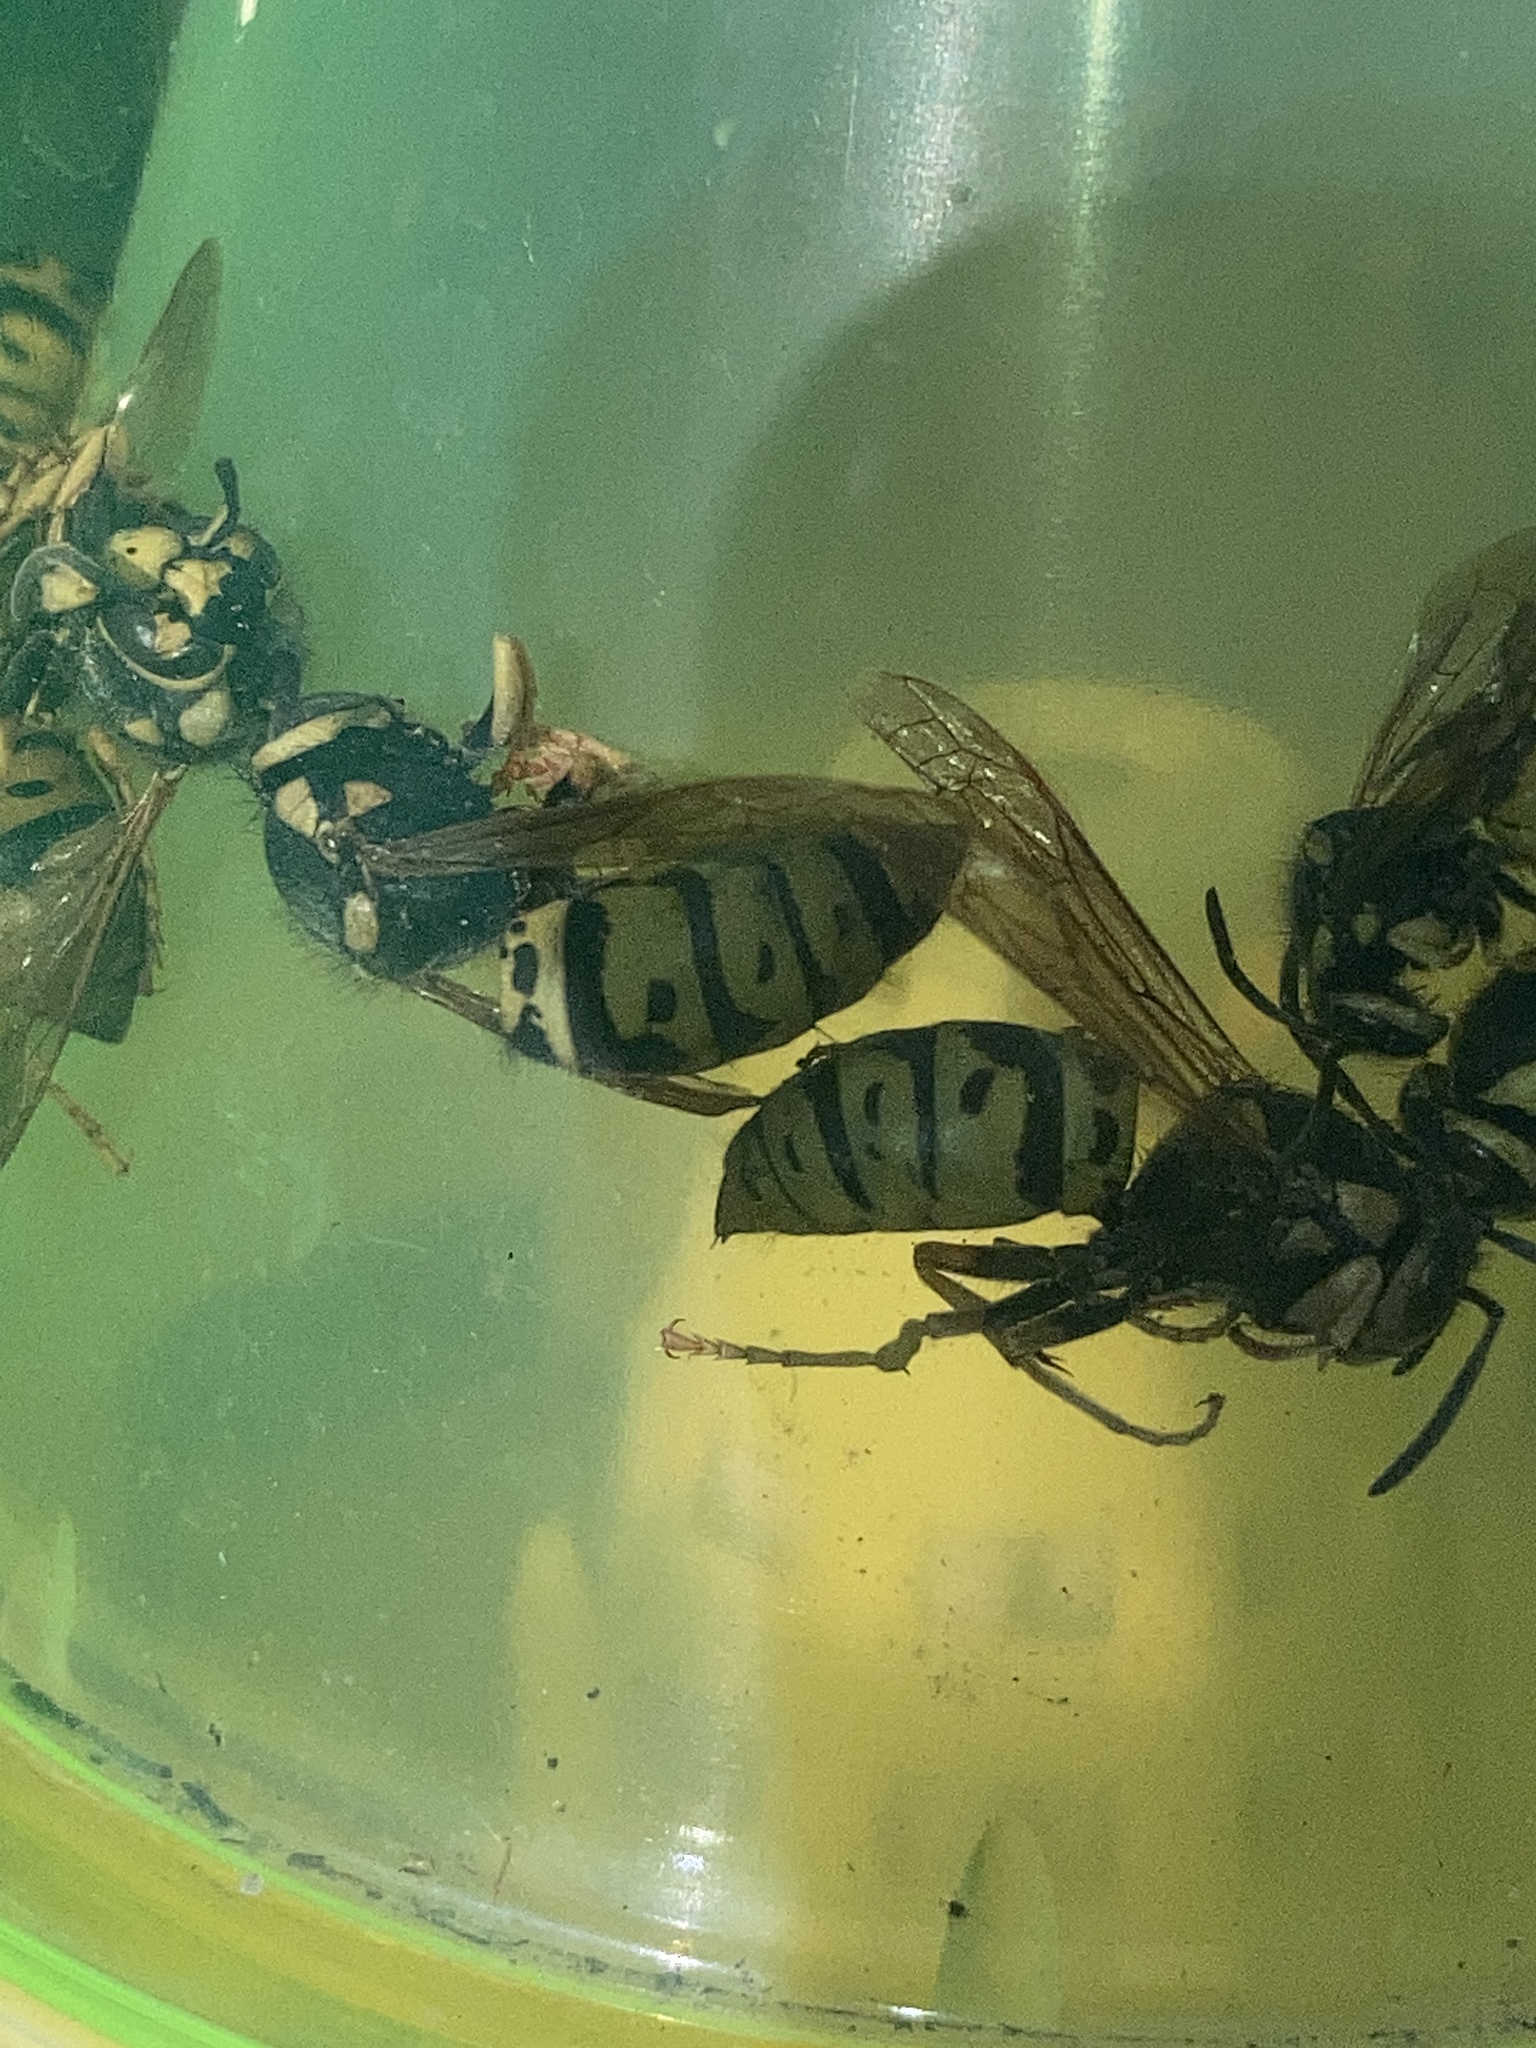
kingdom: Animalia
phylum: Arthropoda
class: Insecta
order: Hymenoptera
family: Vespidae
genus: Vespula
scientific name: Vespula atropilosa
